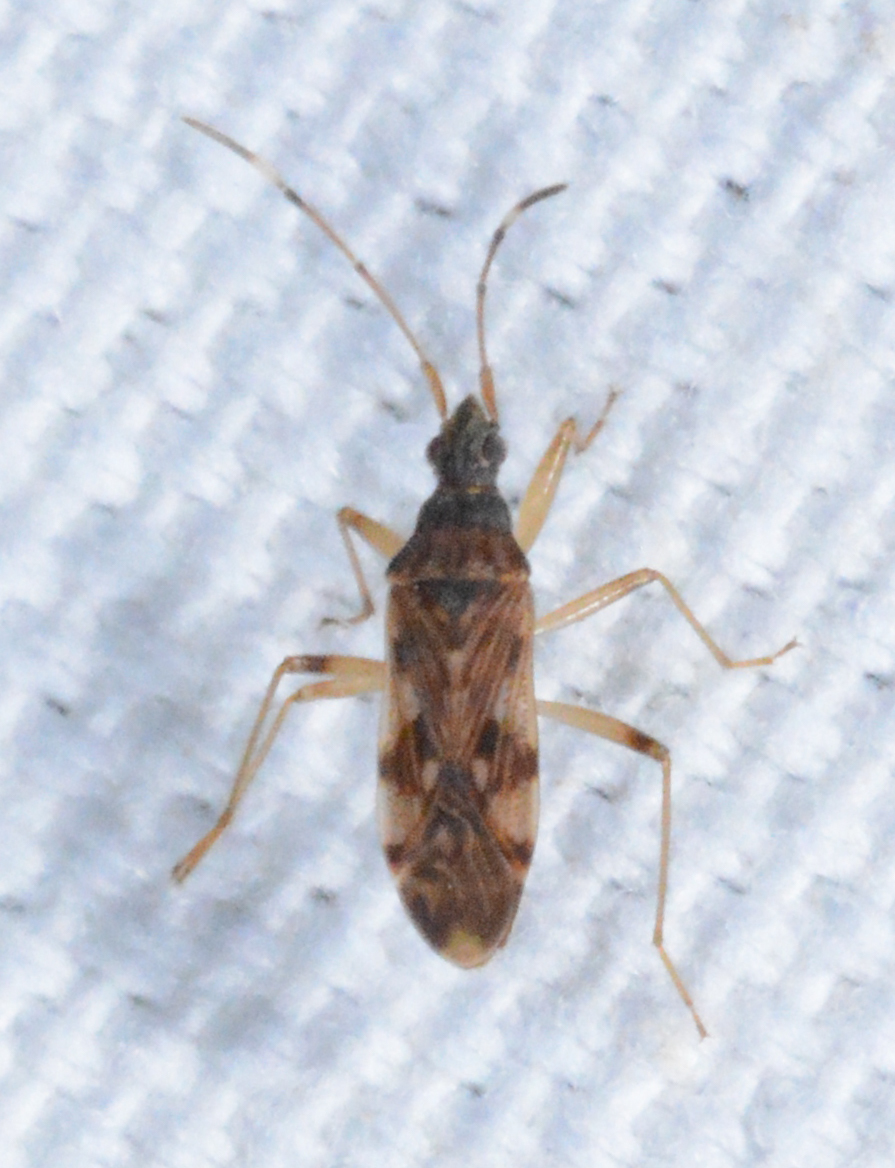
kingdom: Animalia
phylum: Arthropoda
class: Insecta
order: Hemiptera
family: Rhyparochromidae
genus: Ozophora
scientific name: Ozophora picturata
